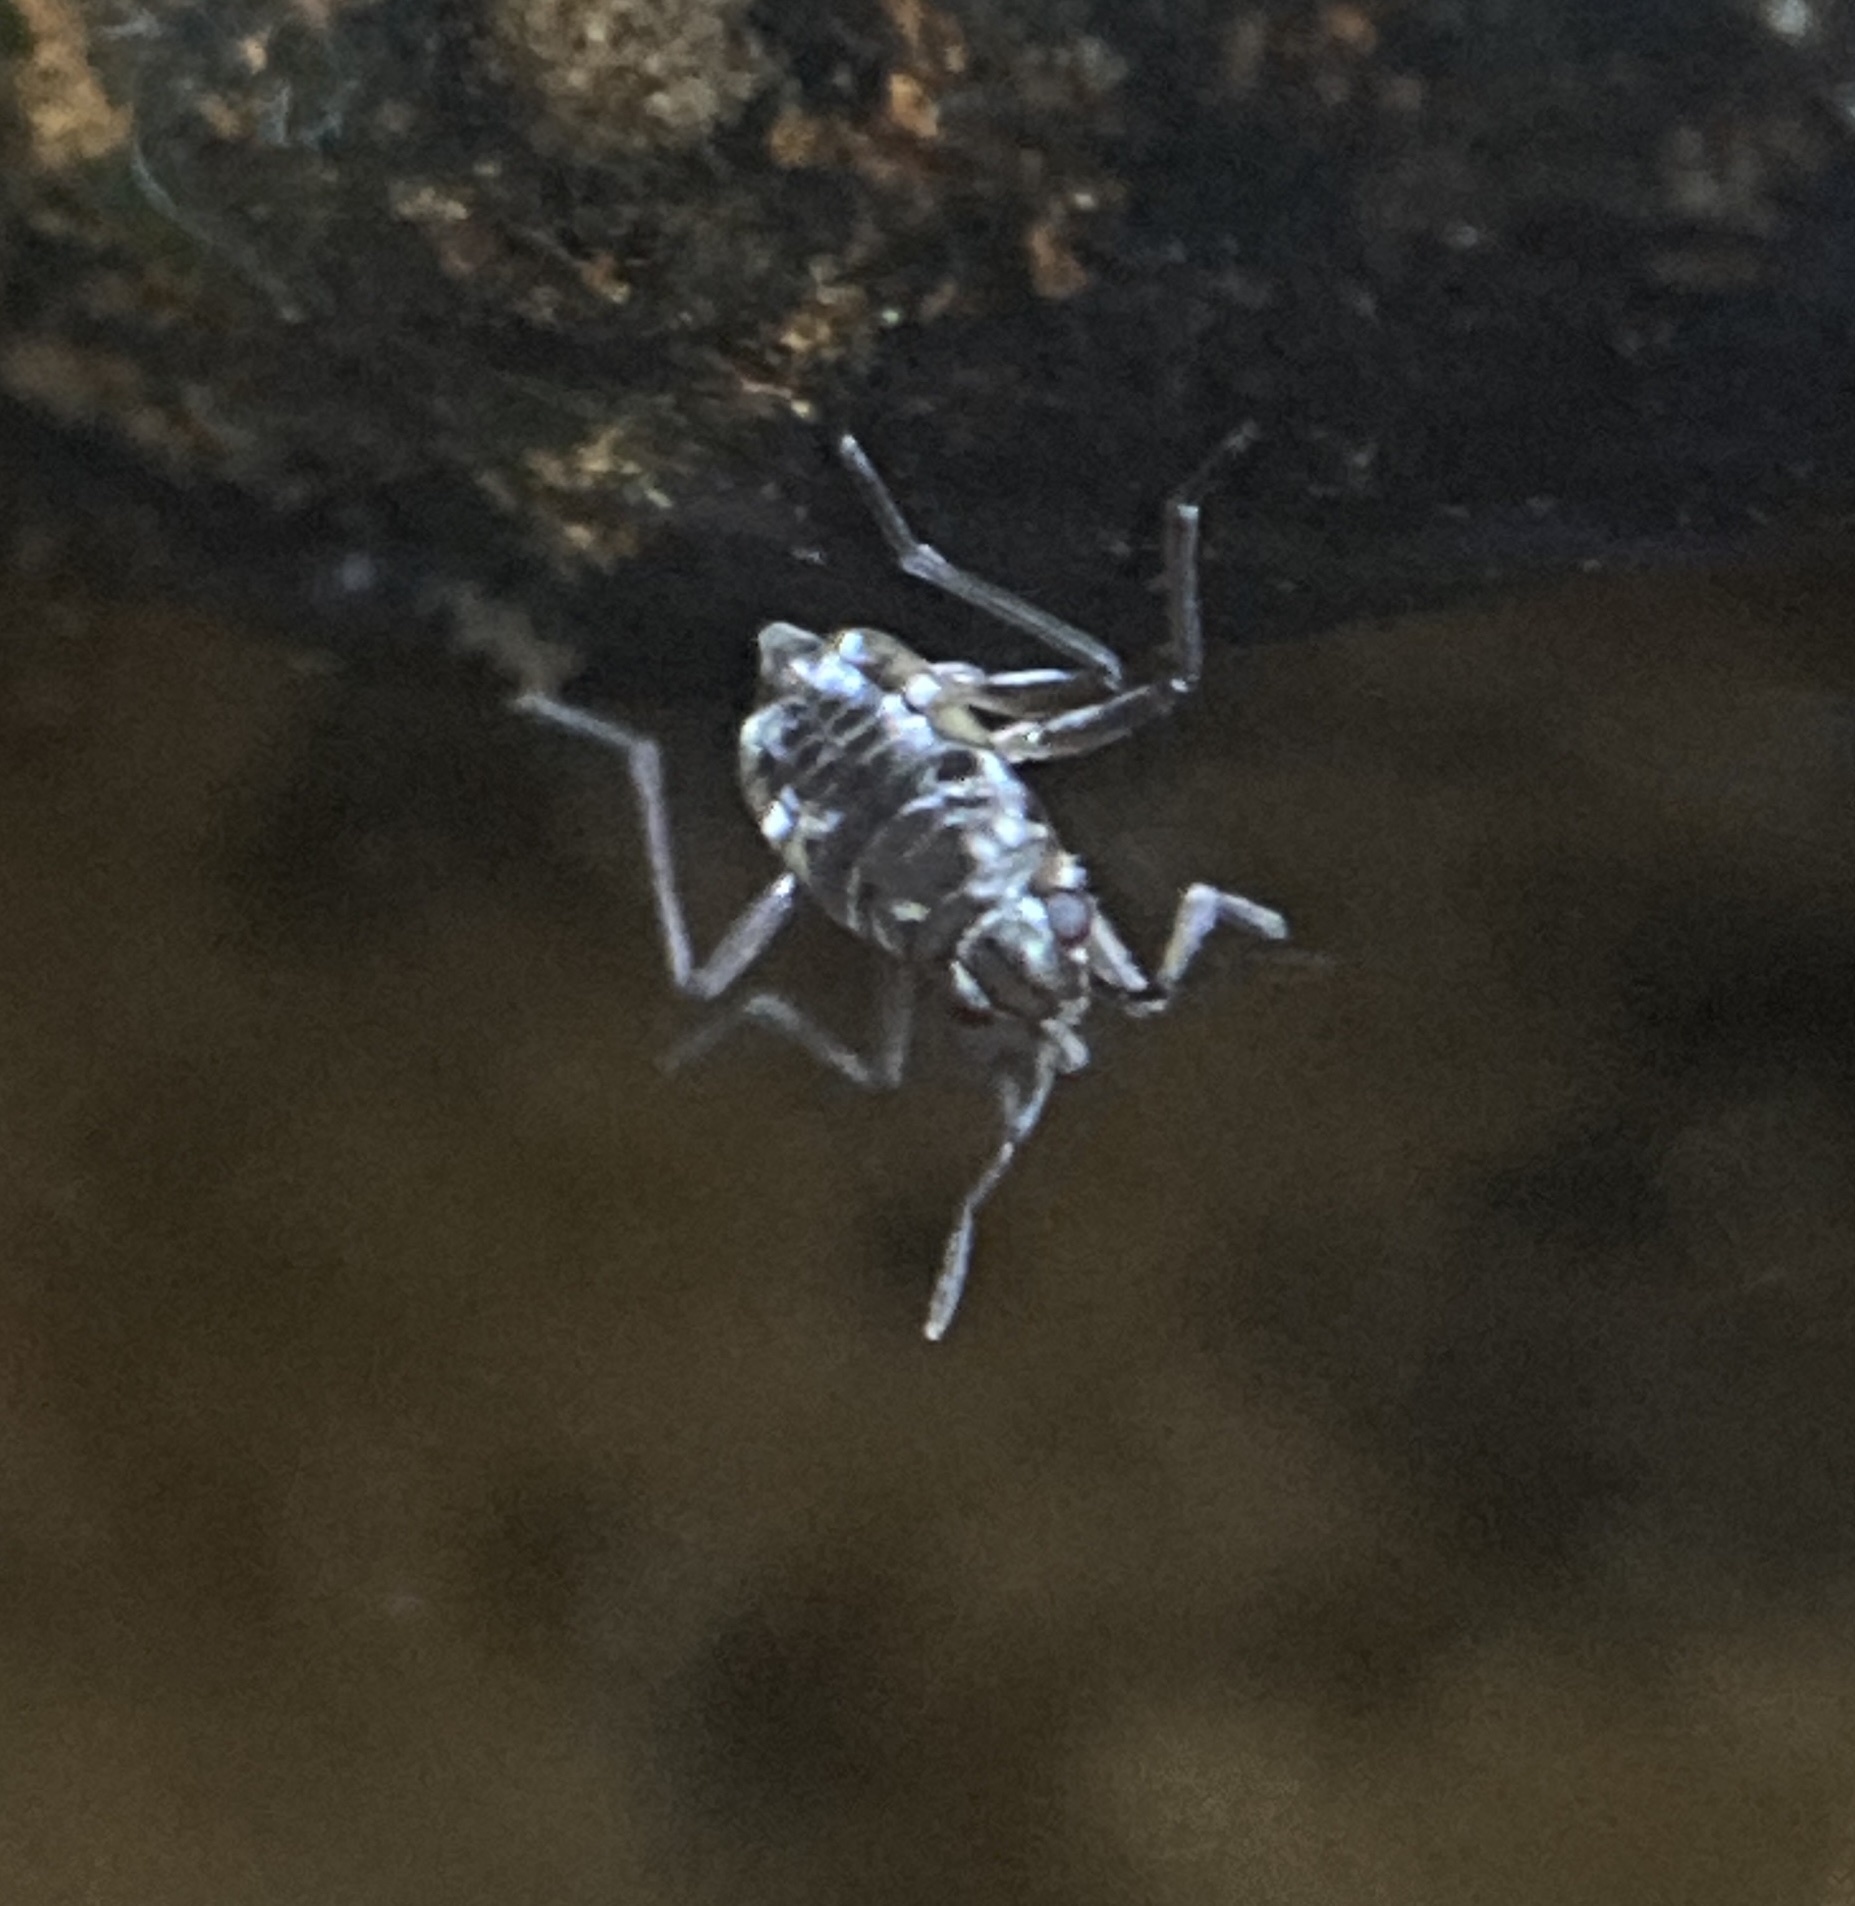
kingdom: Animalia
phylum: Arthropoda
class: Insecta
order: Hemiptera
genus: Kirkaldya
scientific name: Kirkaldya
